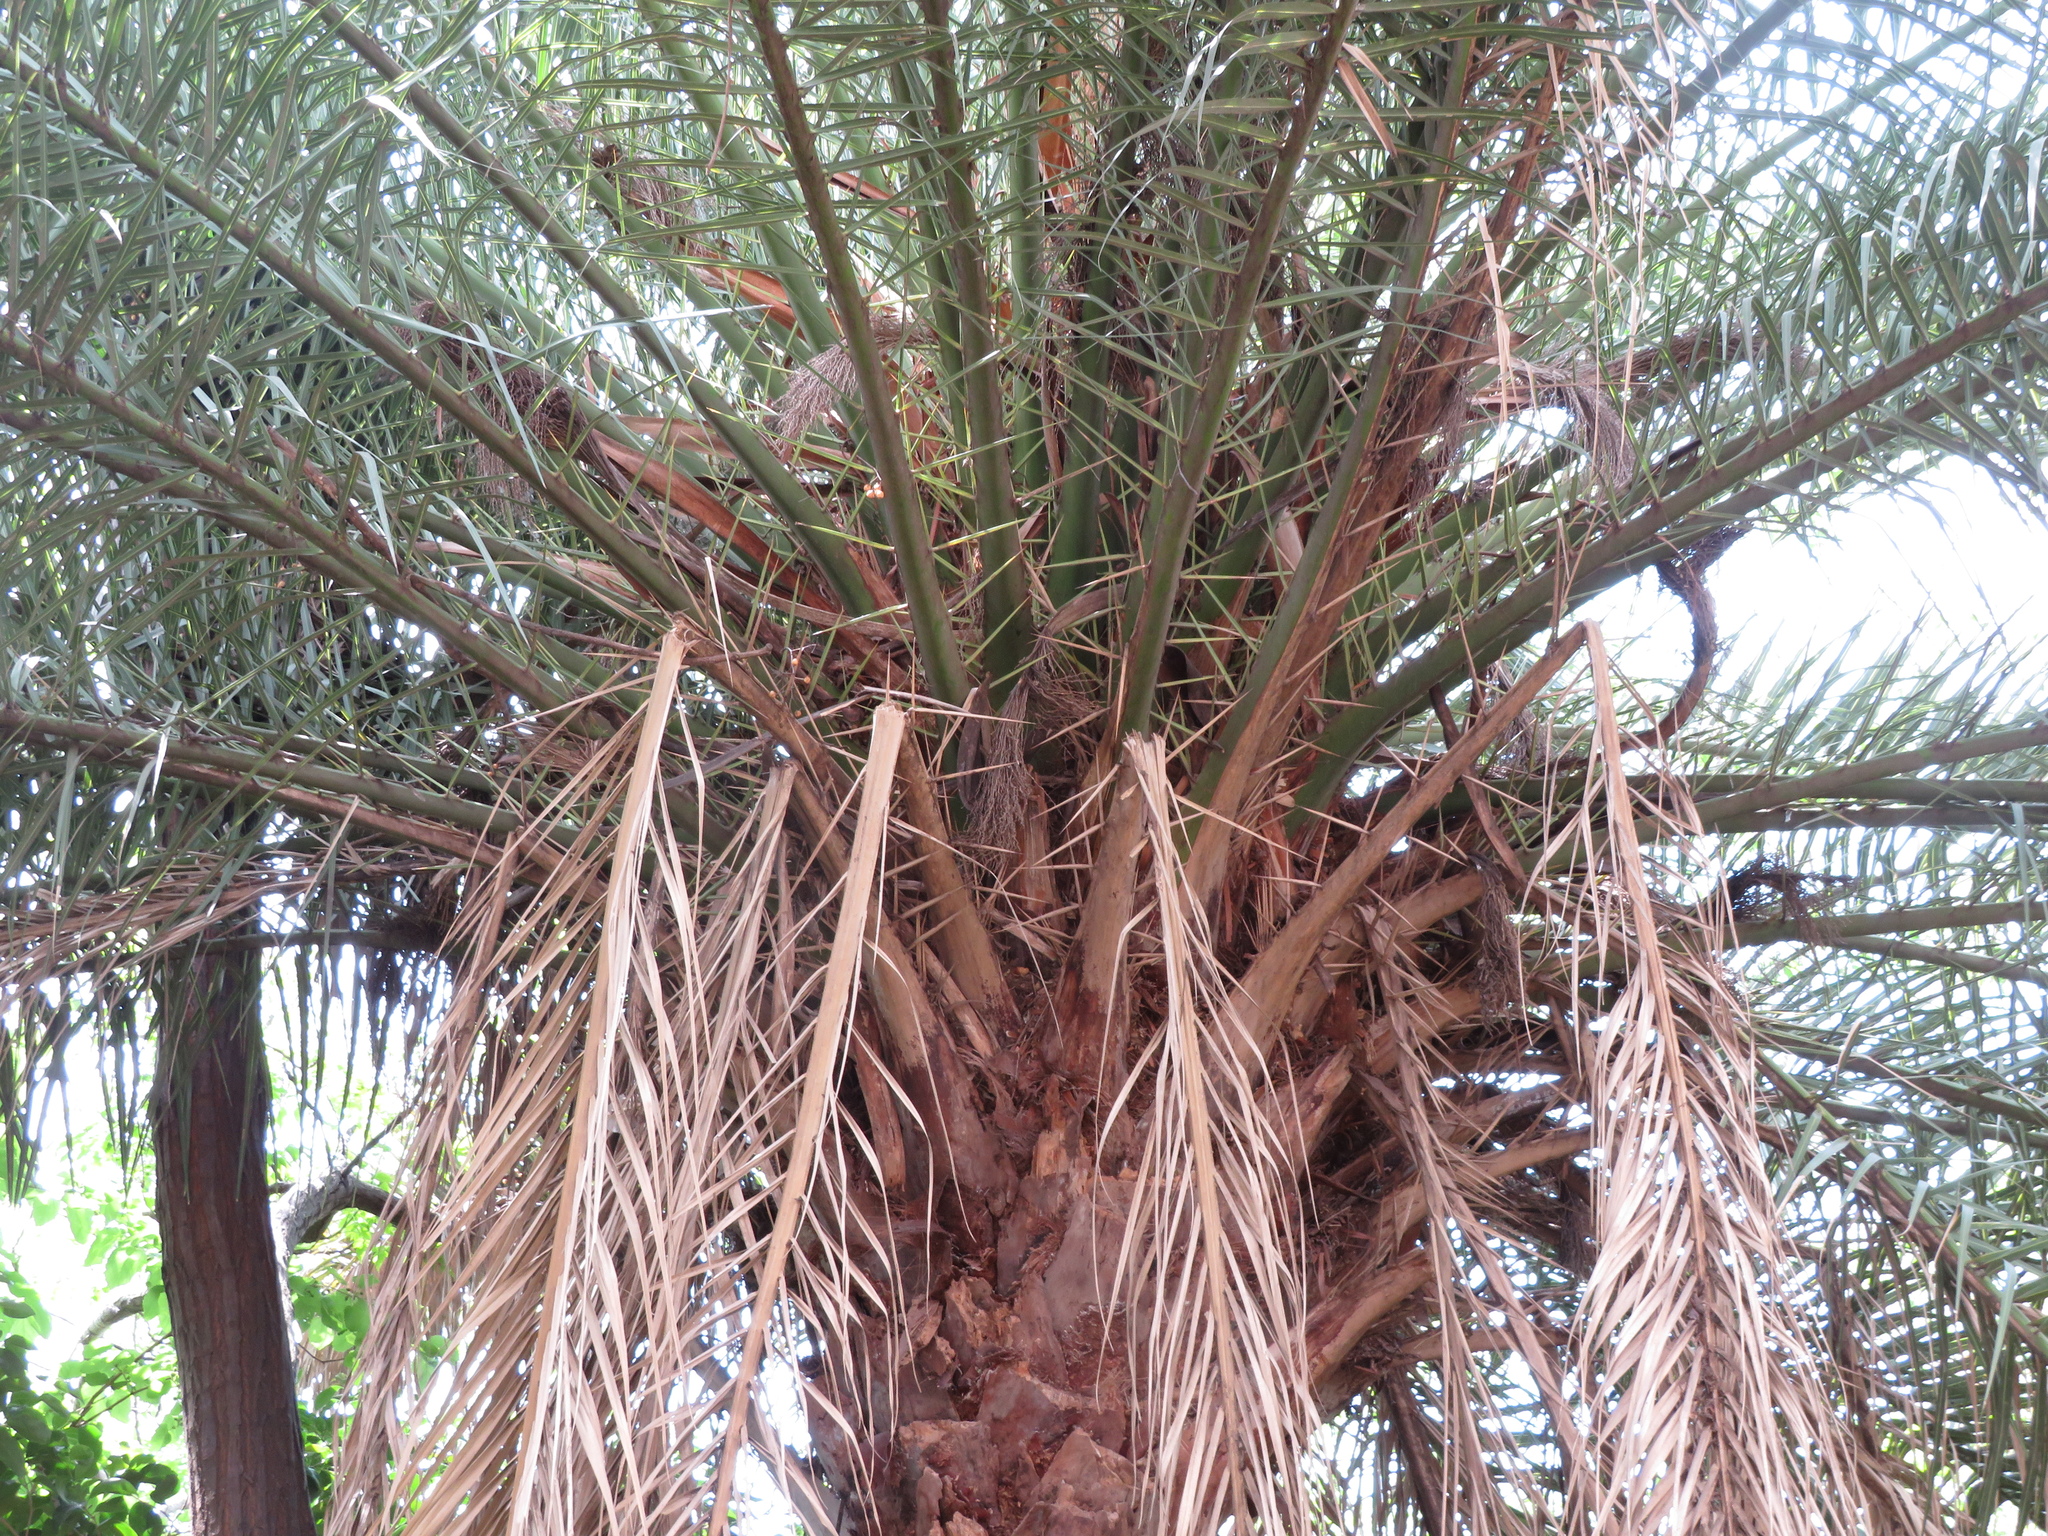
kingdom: Plantae
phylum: Tracheophyta
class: Liliopsida
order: Arecales
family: Arecaceae
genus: Phoenix
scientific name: Phoenix canariensis
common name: Canary island date palm
